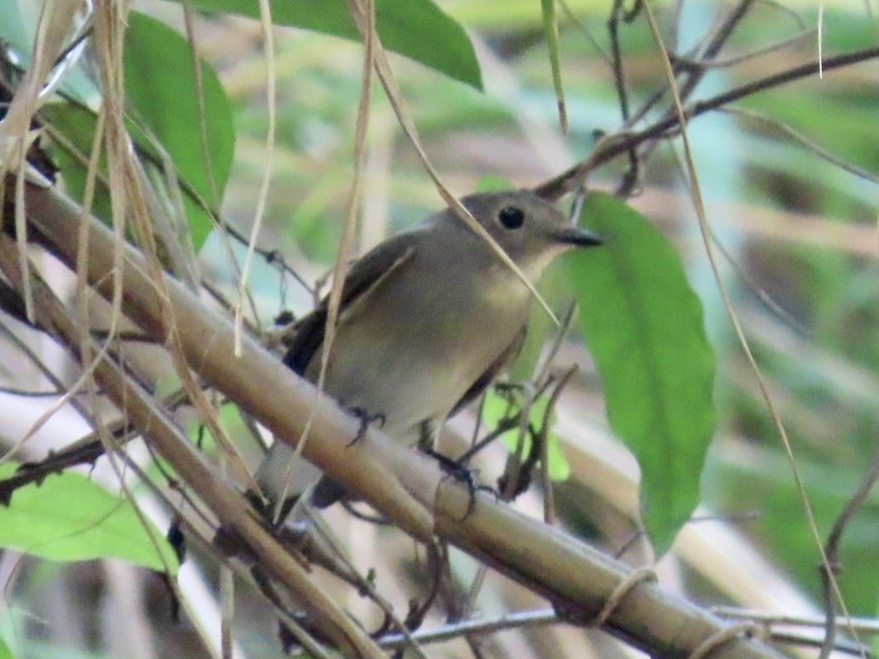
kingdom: Animalia
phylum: Chordata
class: Aves
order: Passeriformes
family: Muscicapidae
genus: Ficedula
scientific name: Ficedula albicilla
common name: Taiga flycatcher
